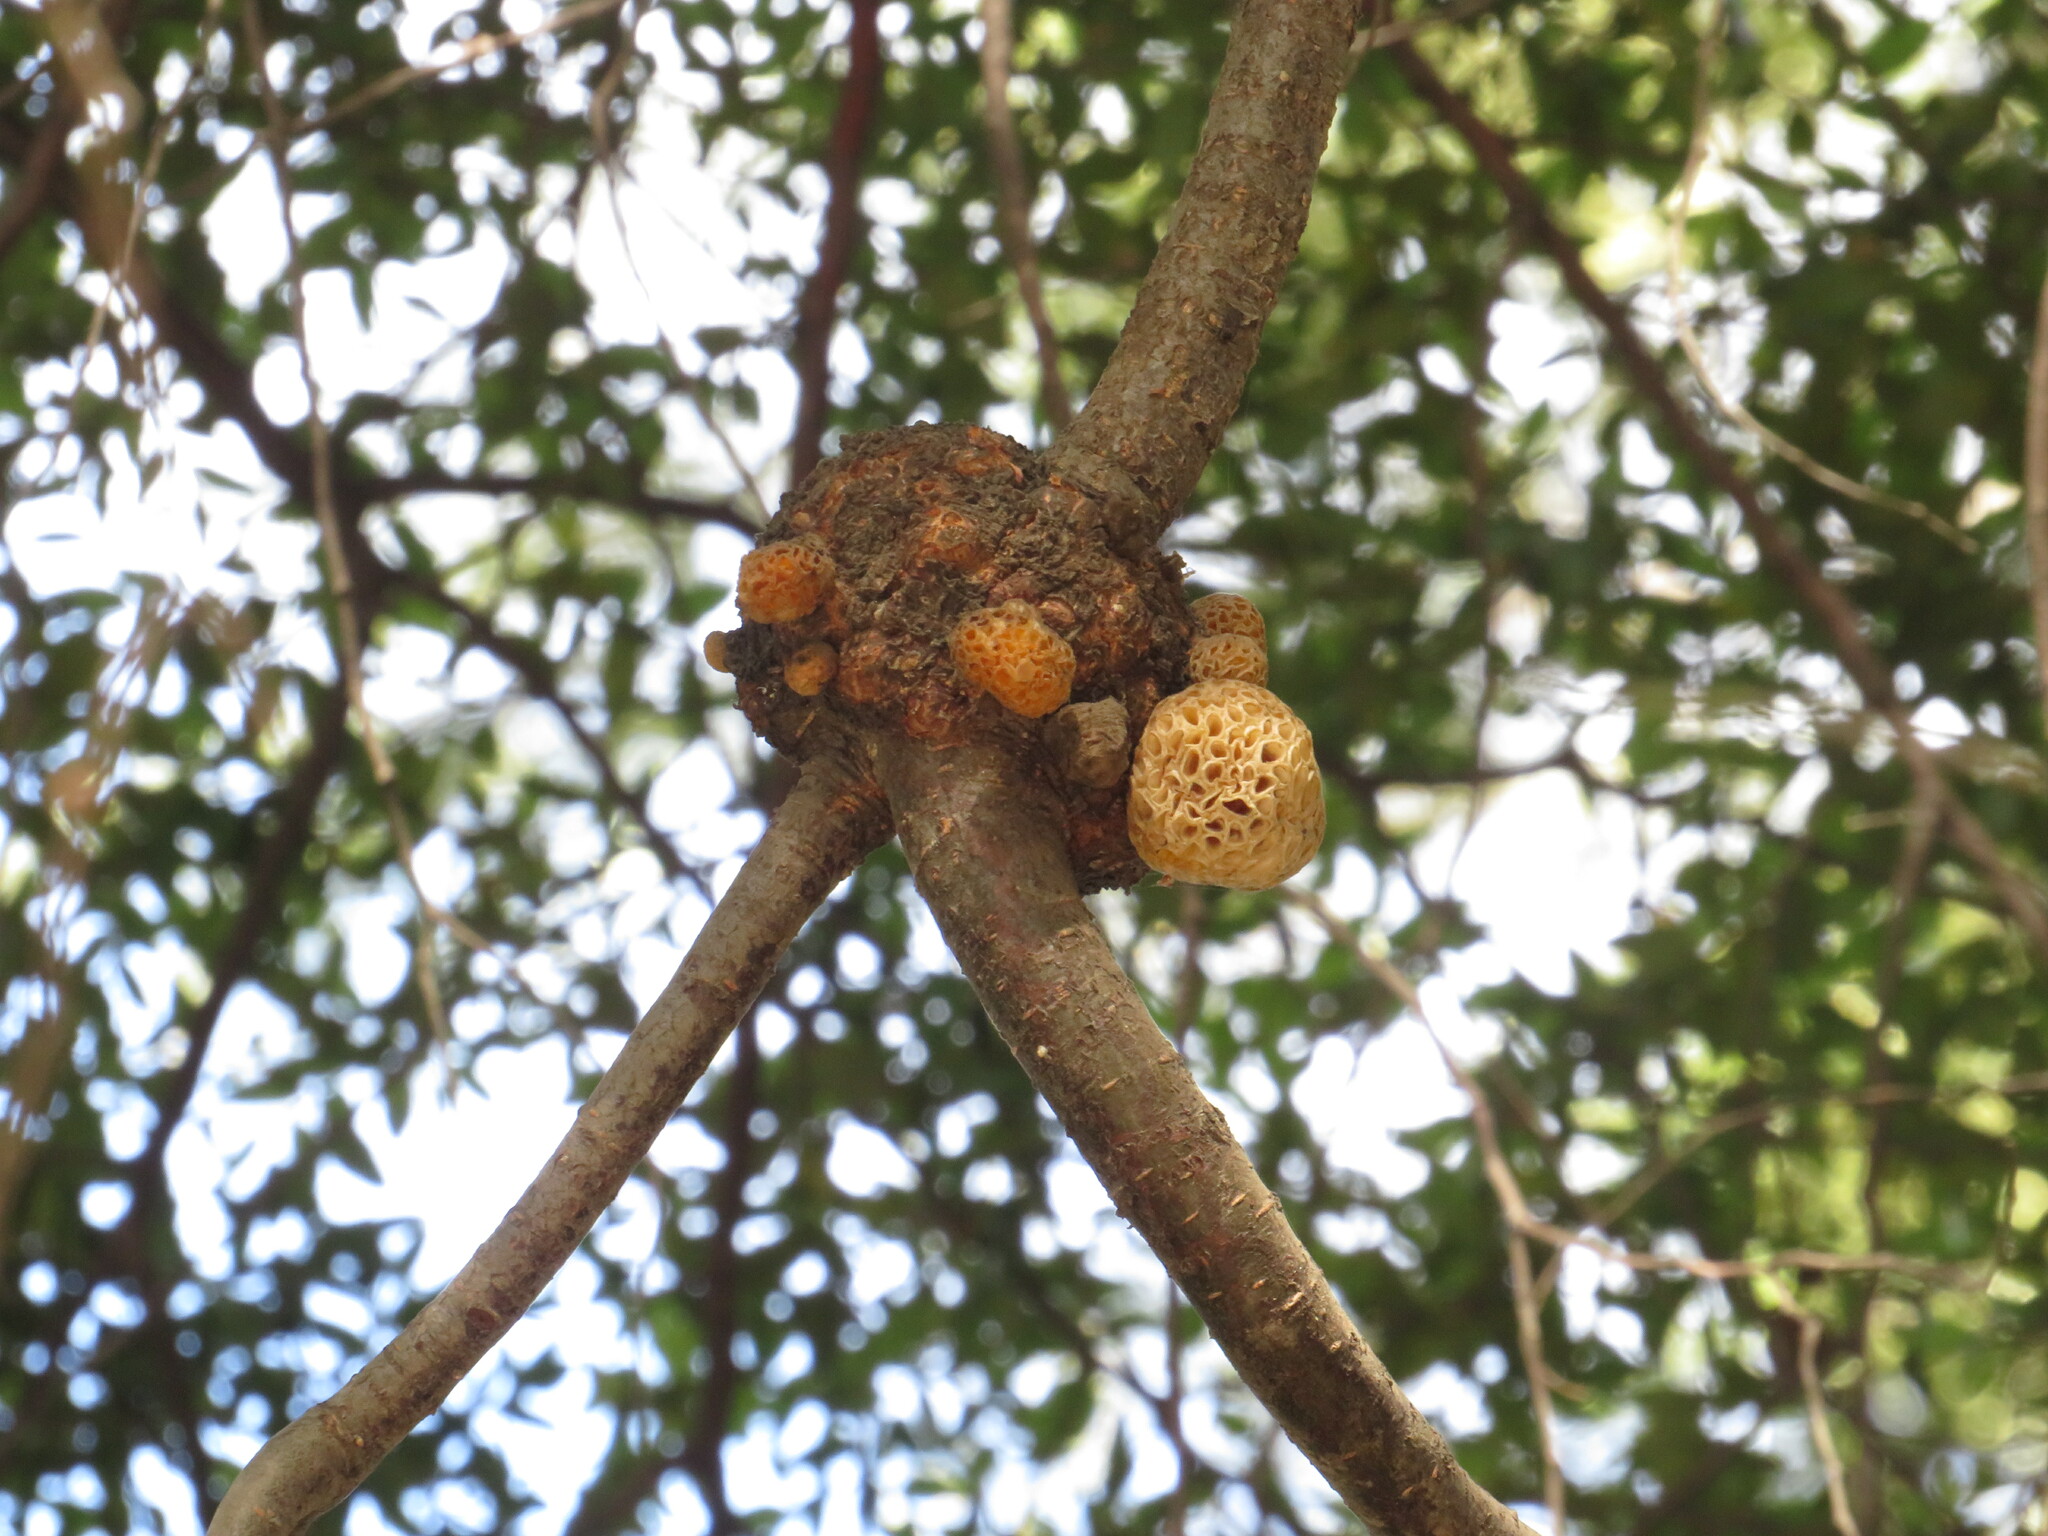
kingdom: Fungi
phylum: Ascomycota
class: Leotiomycetes
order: Cyttariales
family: Cyttariaceae
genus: Cyttaria
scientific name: Cyttaria hariotii
